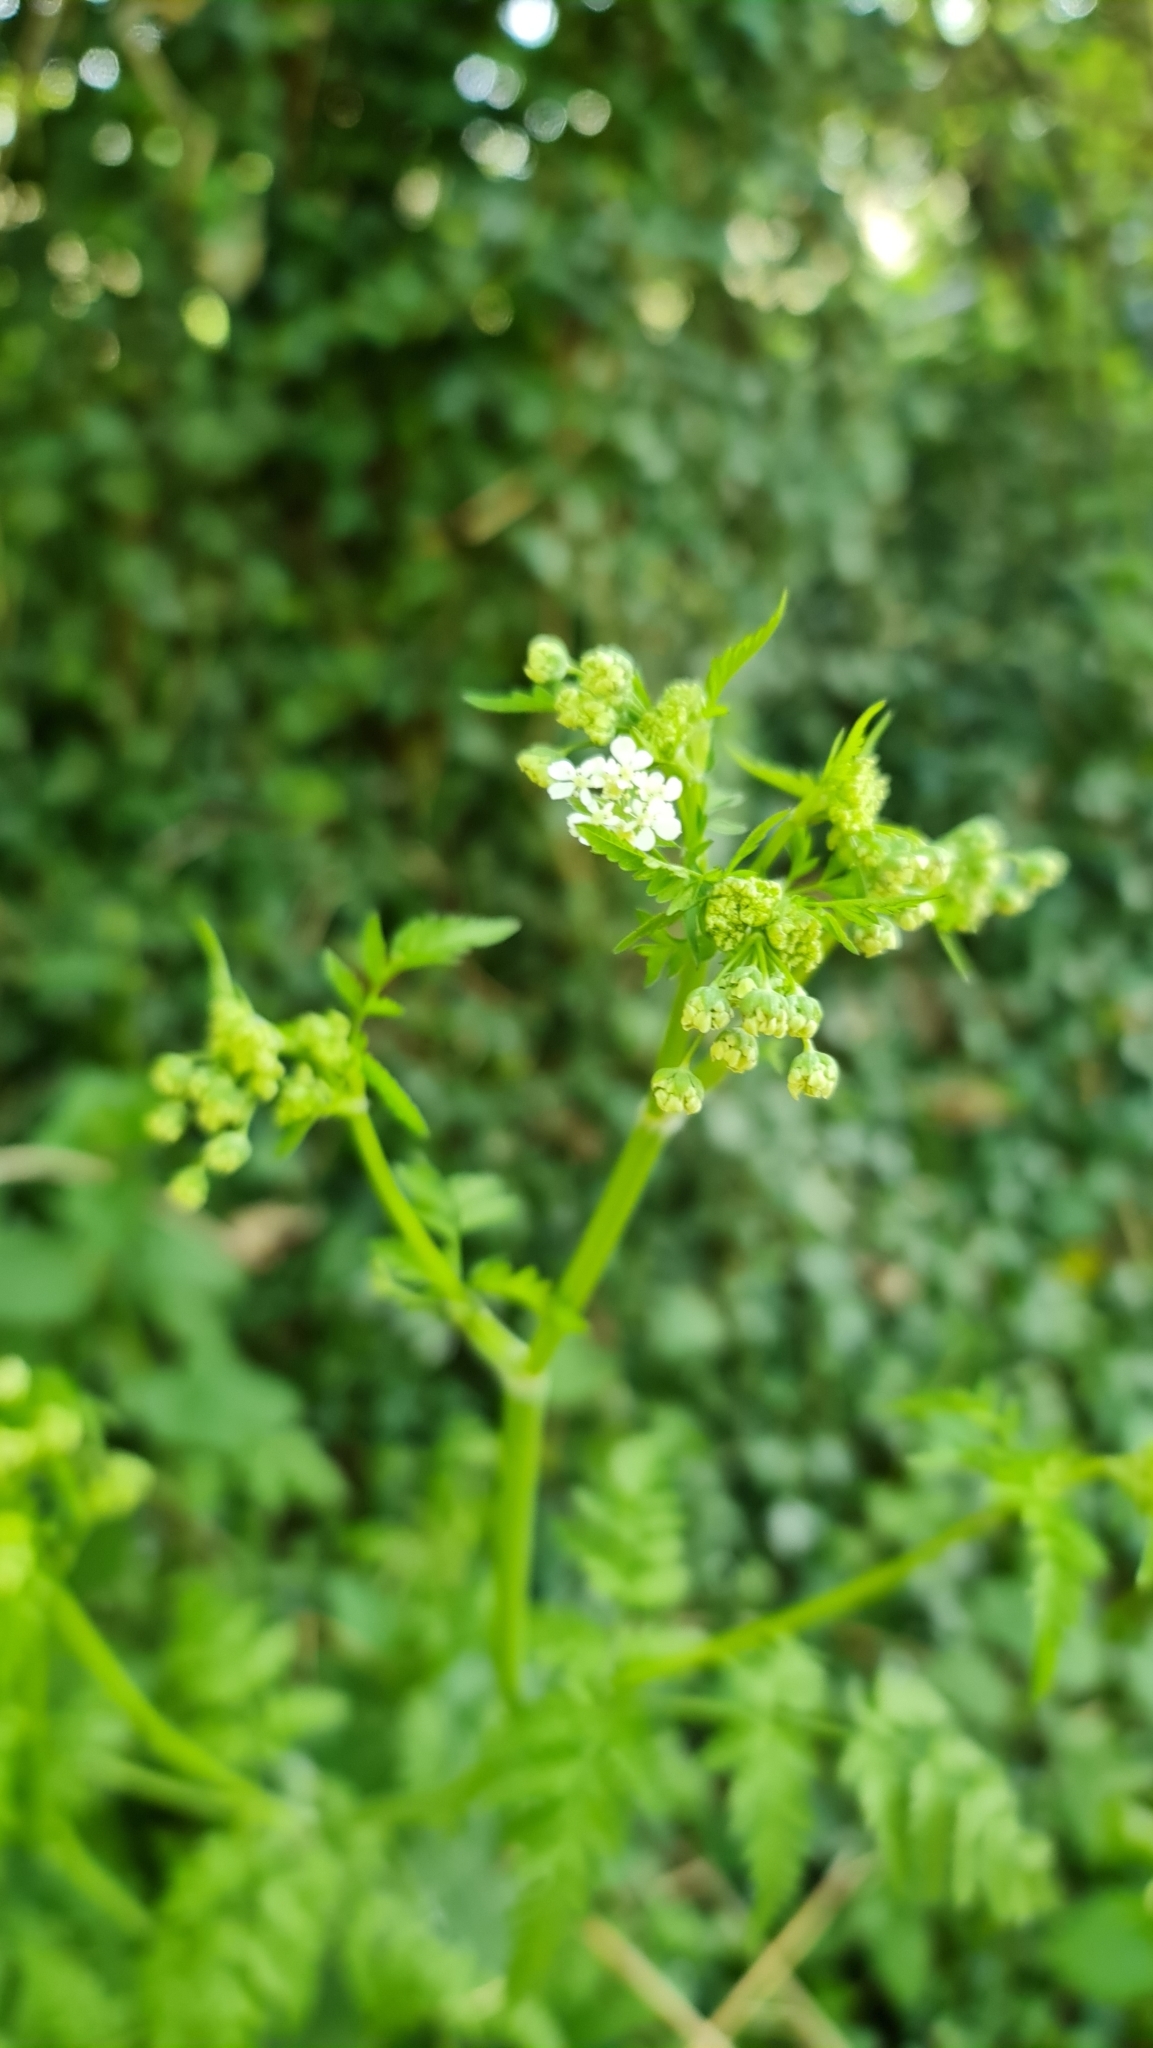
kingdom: Plantae
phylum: Tracheophyta
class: Magnoliopsida
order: Apiales
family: Apiaceae
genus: Anthriscus
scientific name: Anthriscus sylvestris
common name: Cow parsley
